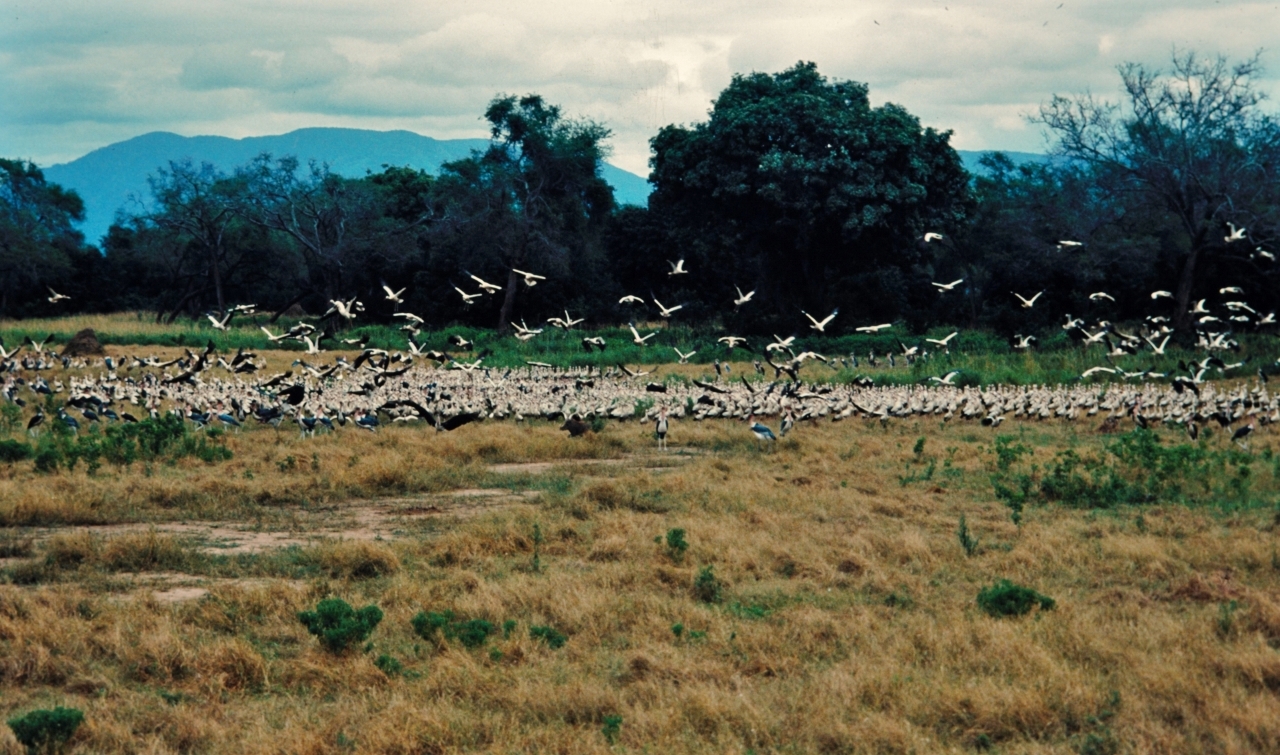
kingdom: Animalia
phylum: Chordata
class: Aves
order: Ciconiiformes
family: Ciconiidae
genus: Ciconia
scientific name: Ciconia ciconia
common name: White stork
